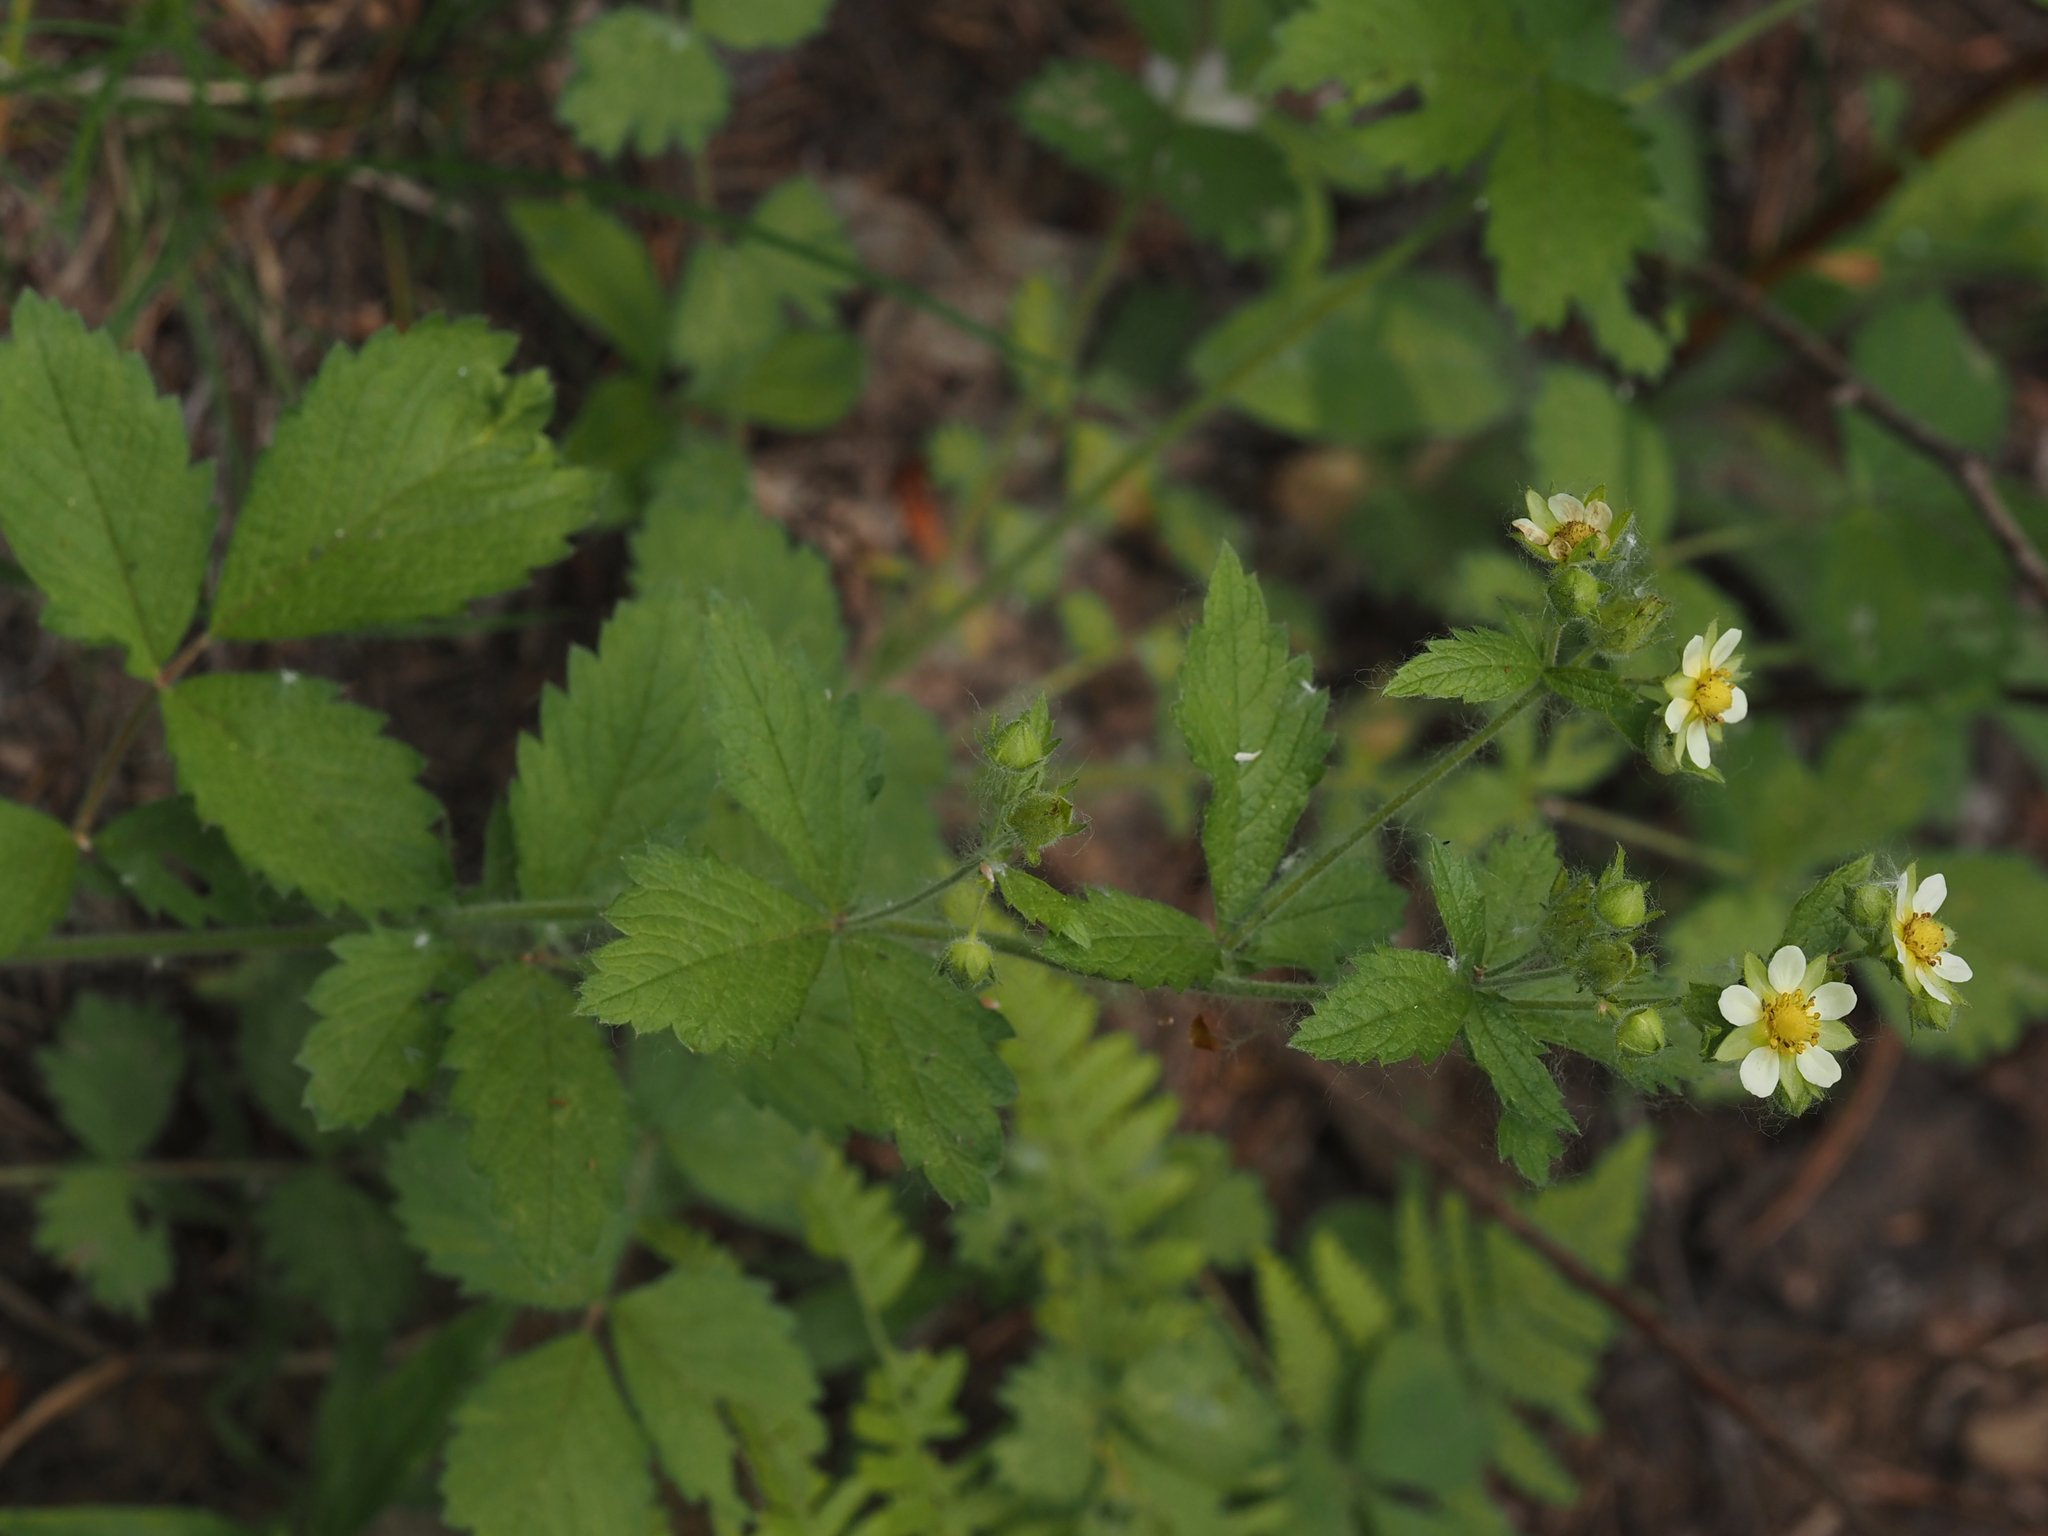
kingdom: Plantae
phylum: Tracheophyta
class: Magnoliopsida
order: Rosales
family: Rosaceae
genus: Drymocallis
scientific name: Drymocallis glandulosa
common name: Sticky cinquefoil
